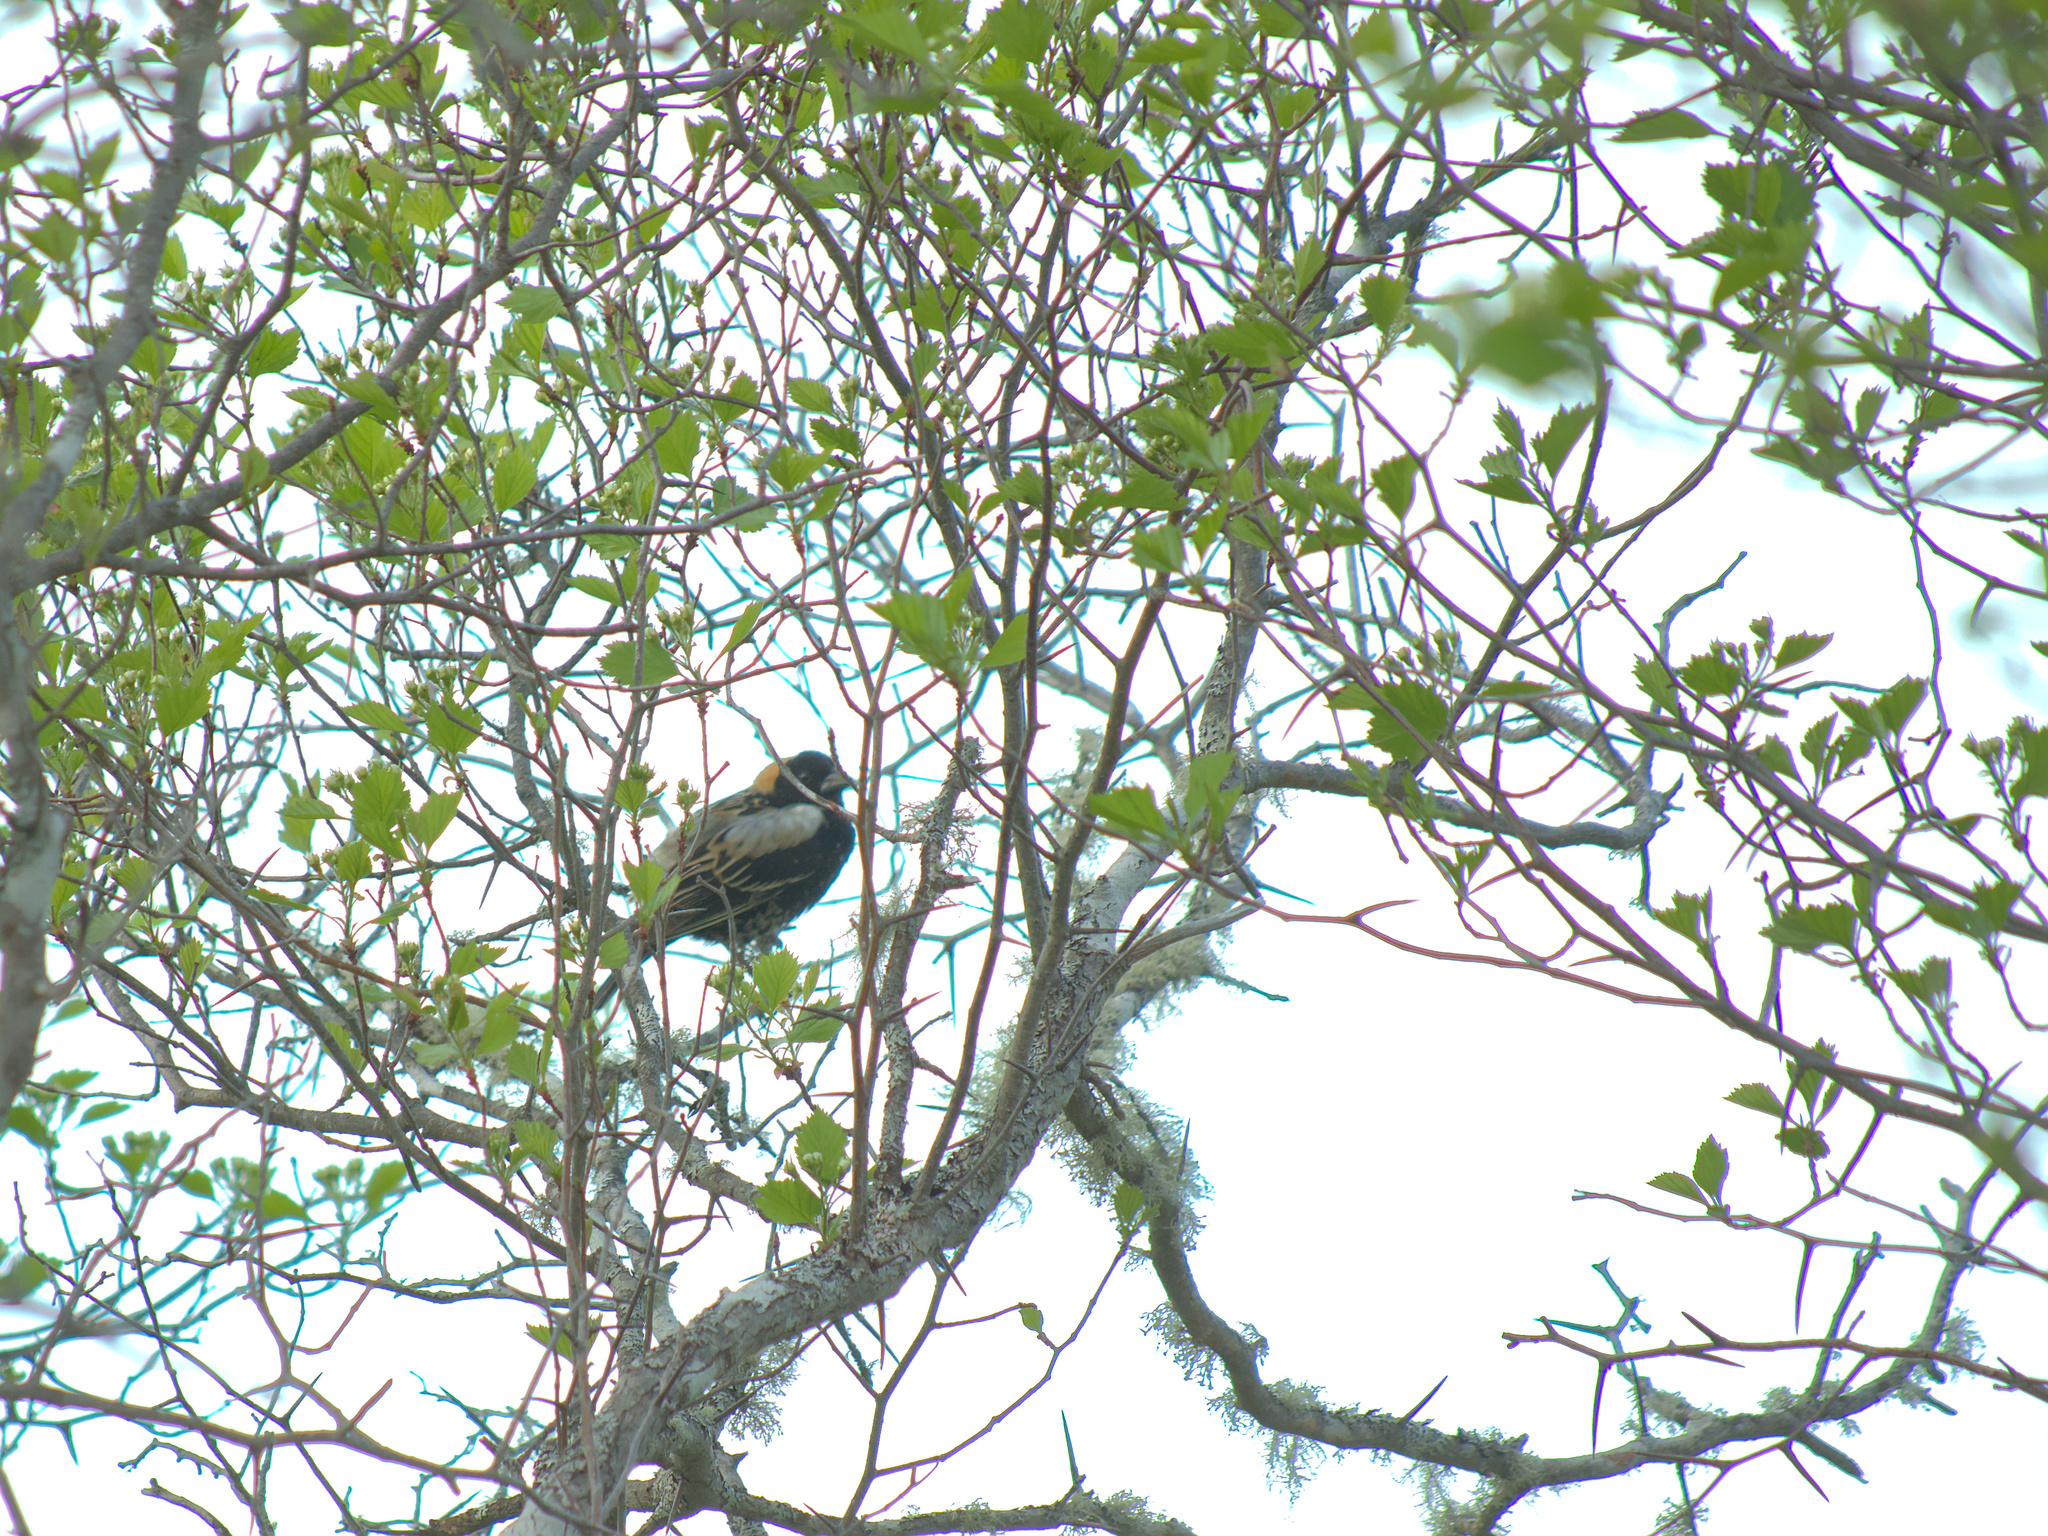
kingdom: Animalia
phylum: Chordata
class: Aves
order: Passeriformes
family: Icteridae
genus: Dolichonyx
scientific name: Dolichonyx oryzivorus
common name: Bobolink
